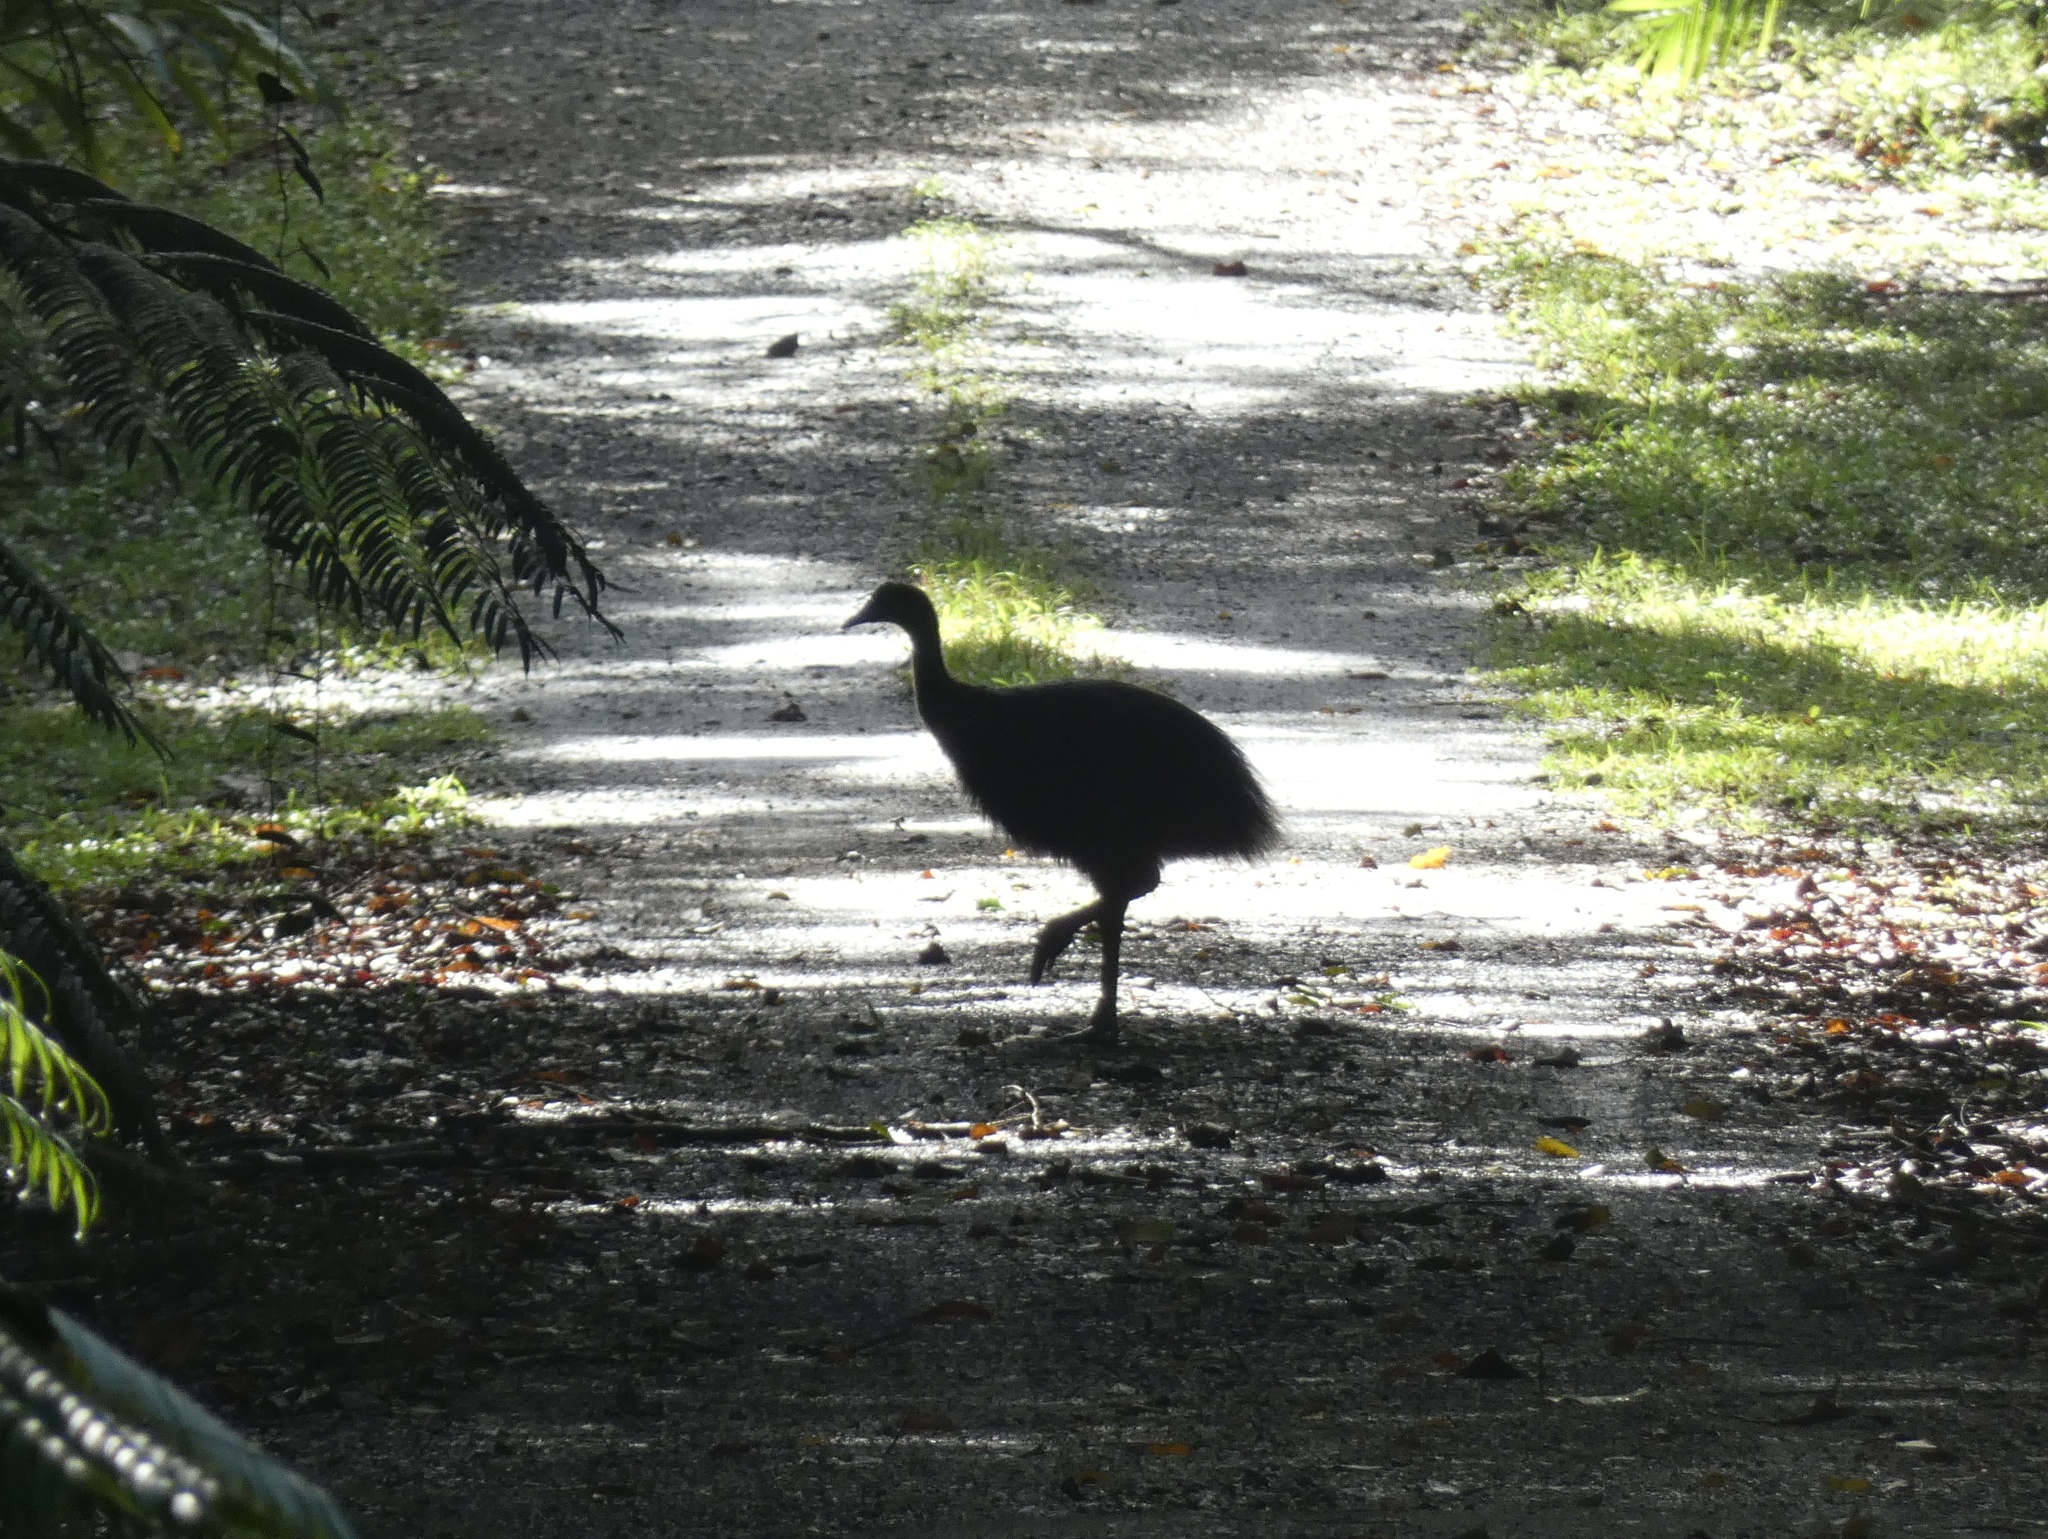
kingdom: Animalia
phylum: Chordata
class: Aves
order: Casuariiformes
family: Casuariidae
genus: Casuarius
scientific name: Casuarius casuarius
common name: Southern cassowary
